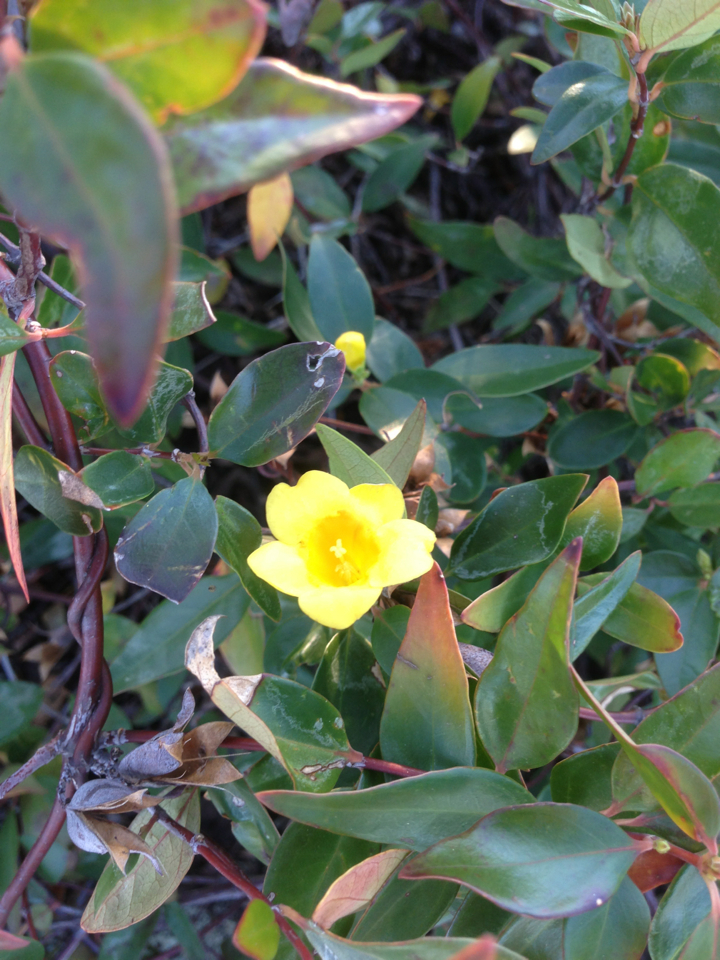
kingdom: Plantae
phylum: Tracheophyta
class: Magnoliopsida
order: Gentianales
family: Gelsemiaceae
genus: Gelsemium
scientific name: Gelsemium sempervirens
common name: Carolina-jasmine
